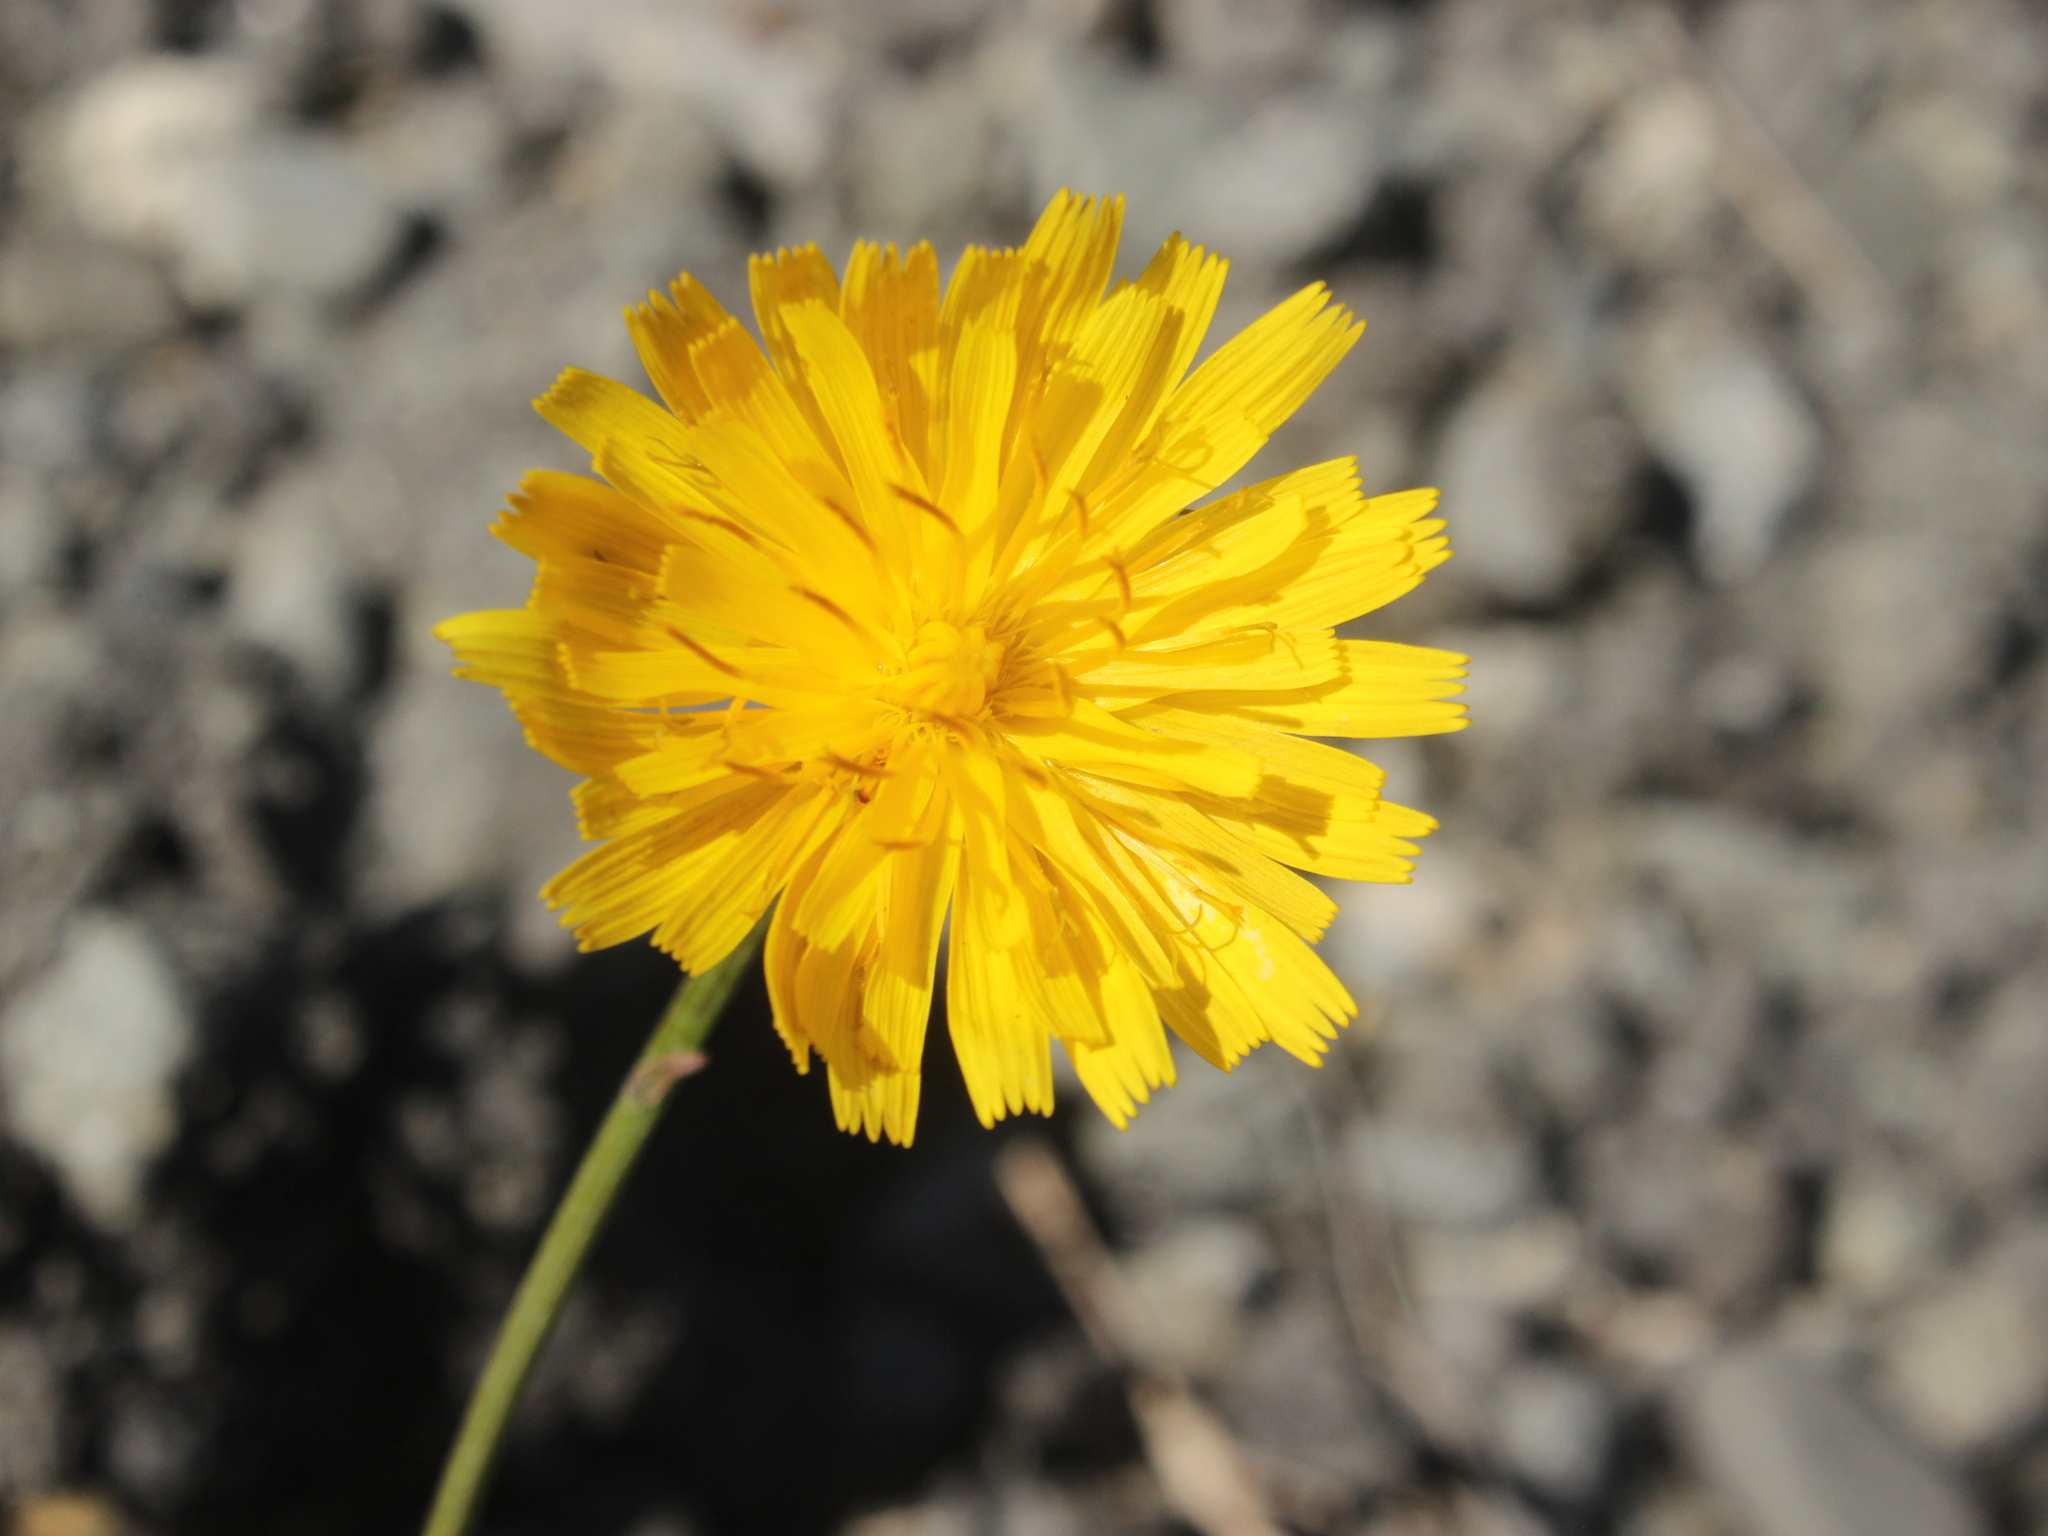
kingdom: Plantae
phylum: Tracheophyta
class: Magnoliopsida
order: Asterales
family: Asteraceae
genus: Scorzoneroides
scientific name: Scorzoneroides autumnalis
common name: Autumn hawkbit
